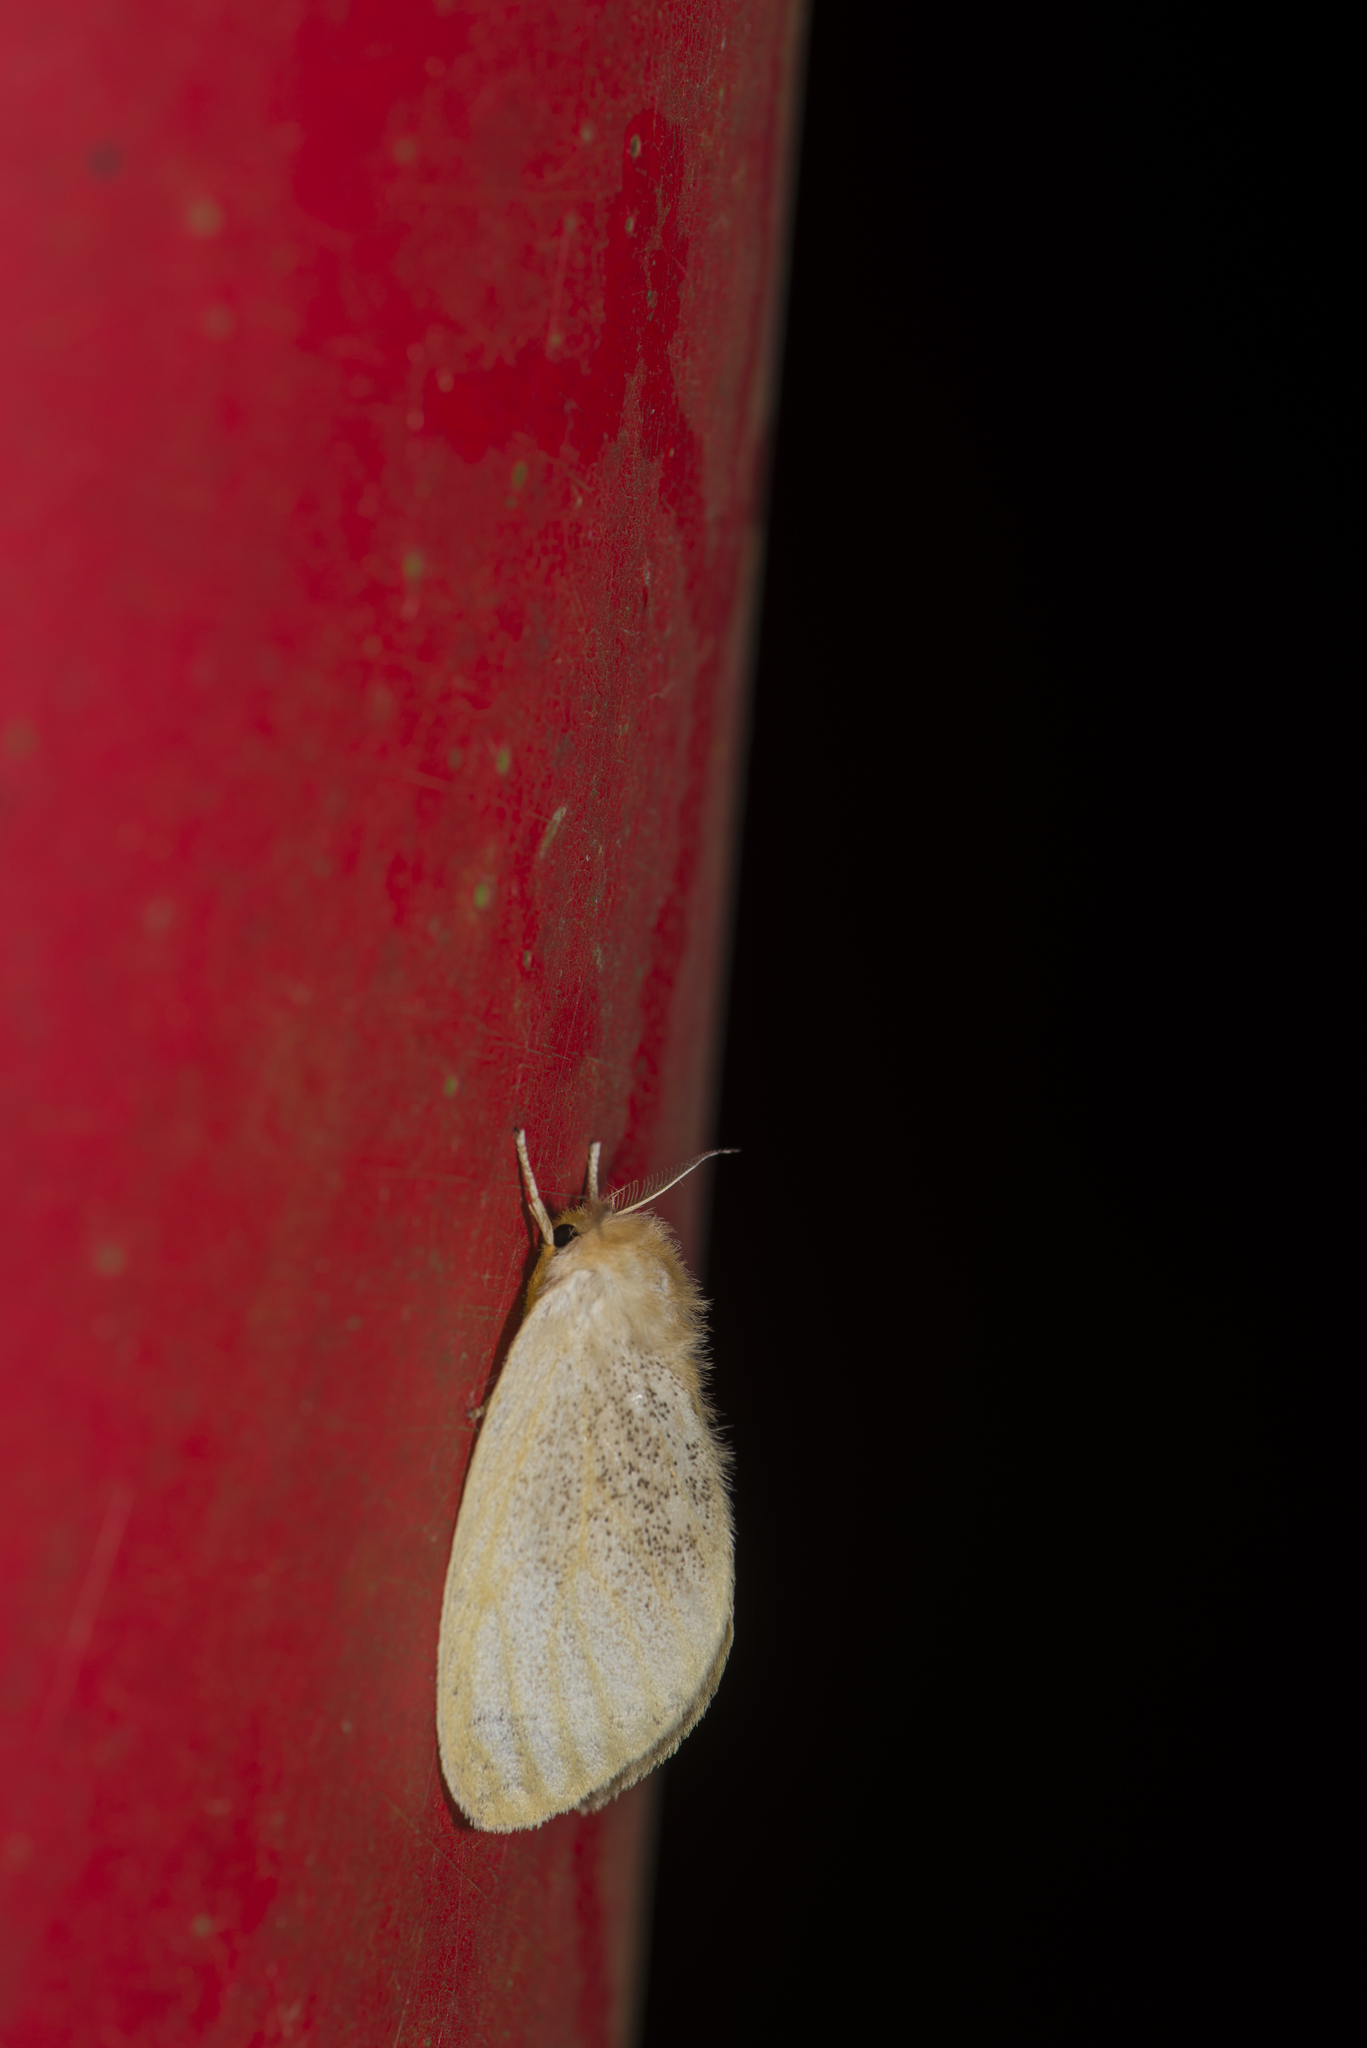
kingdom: Animalia
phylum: Arthropoda
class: Insecta
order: Lepidoptera
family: Erebidae
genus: Perina
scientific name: Perina nuda
